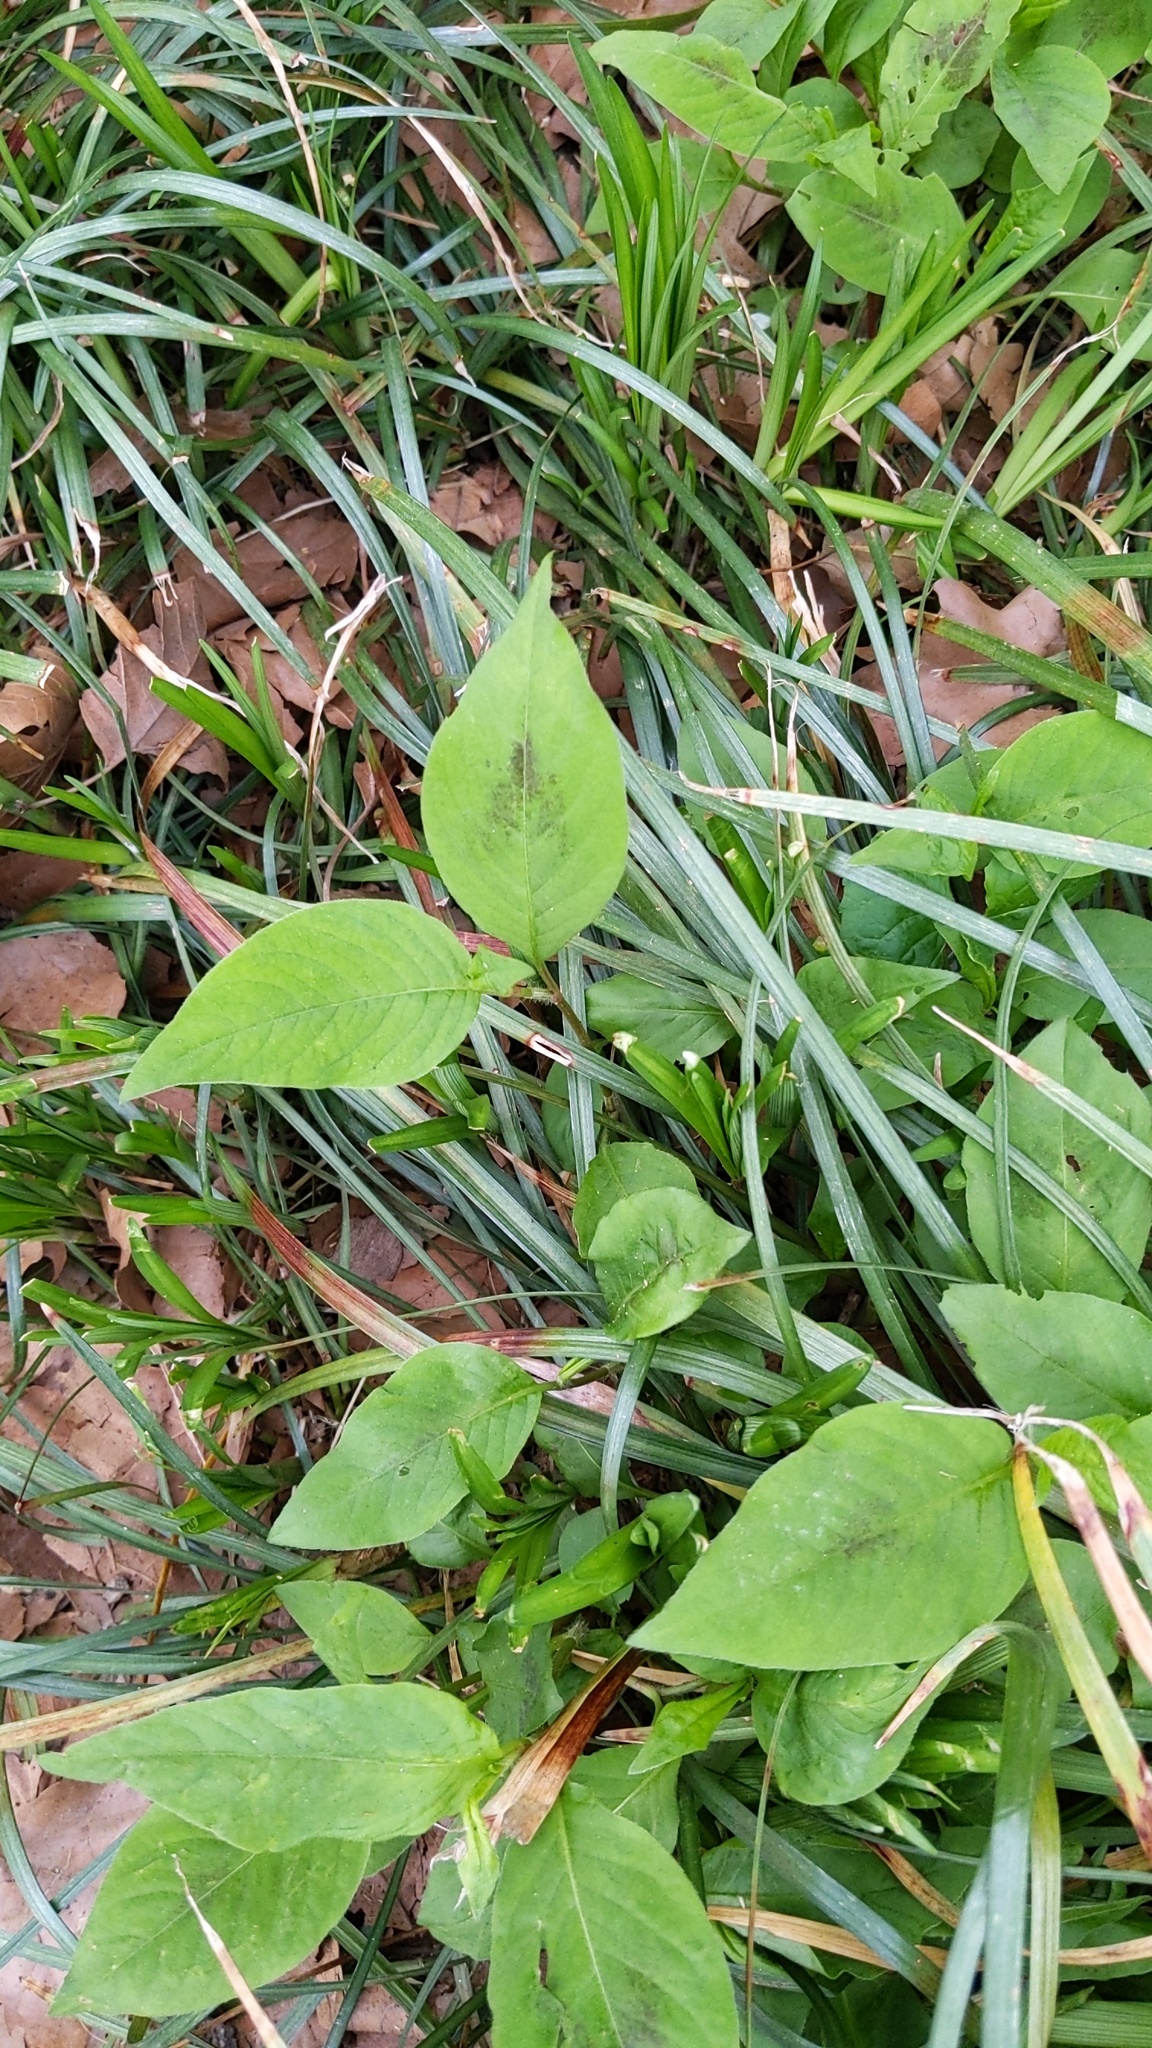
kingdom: Plantae
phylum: Tracheophyta
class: Magnoliopsida
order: Caryophyllales
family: Polygonaceae
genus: Persicaria
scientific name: Persicaria virginiana
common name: Jumpseed
